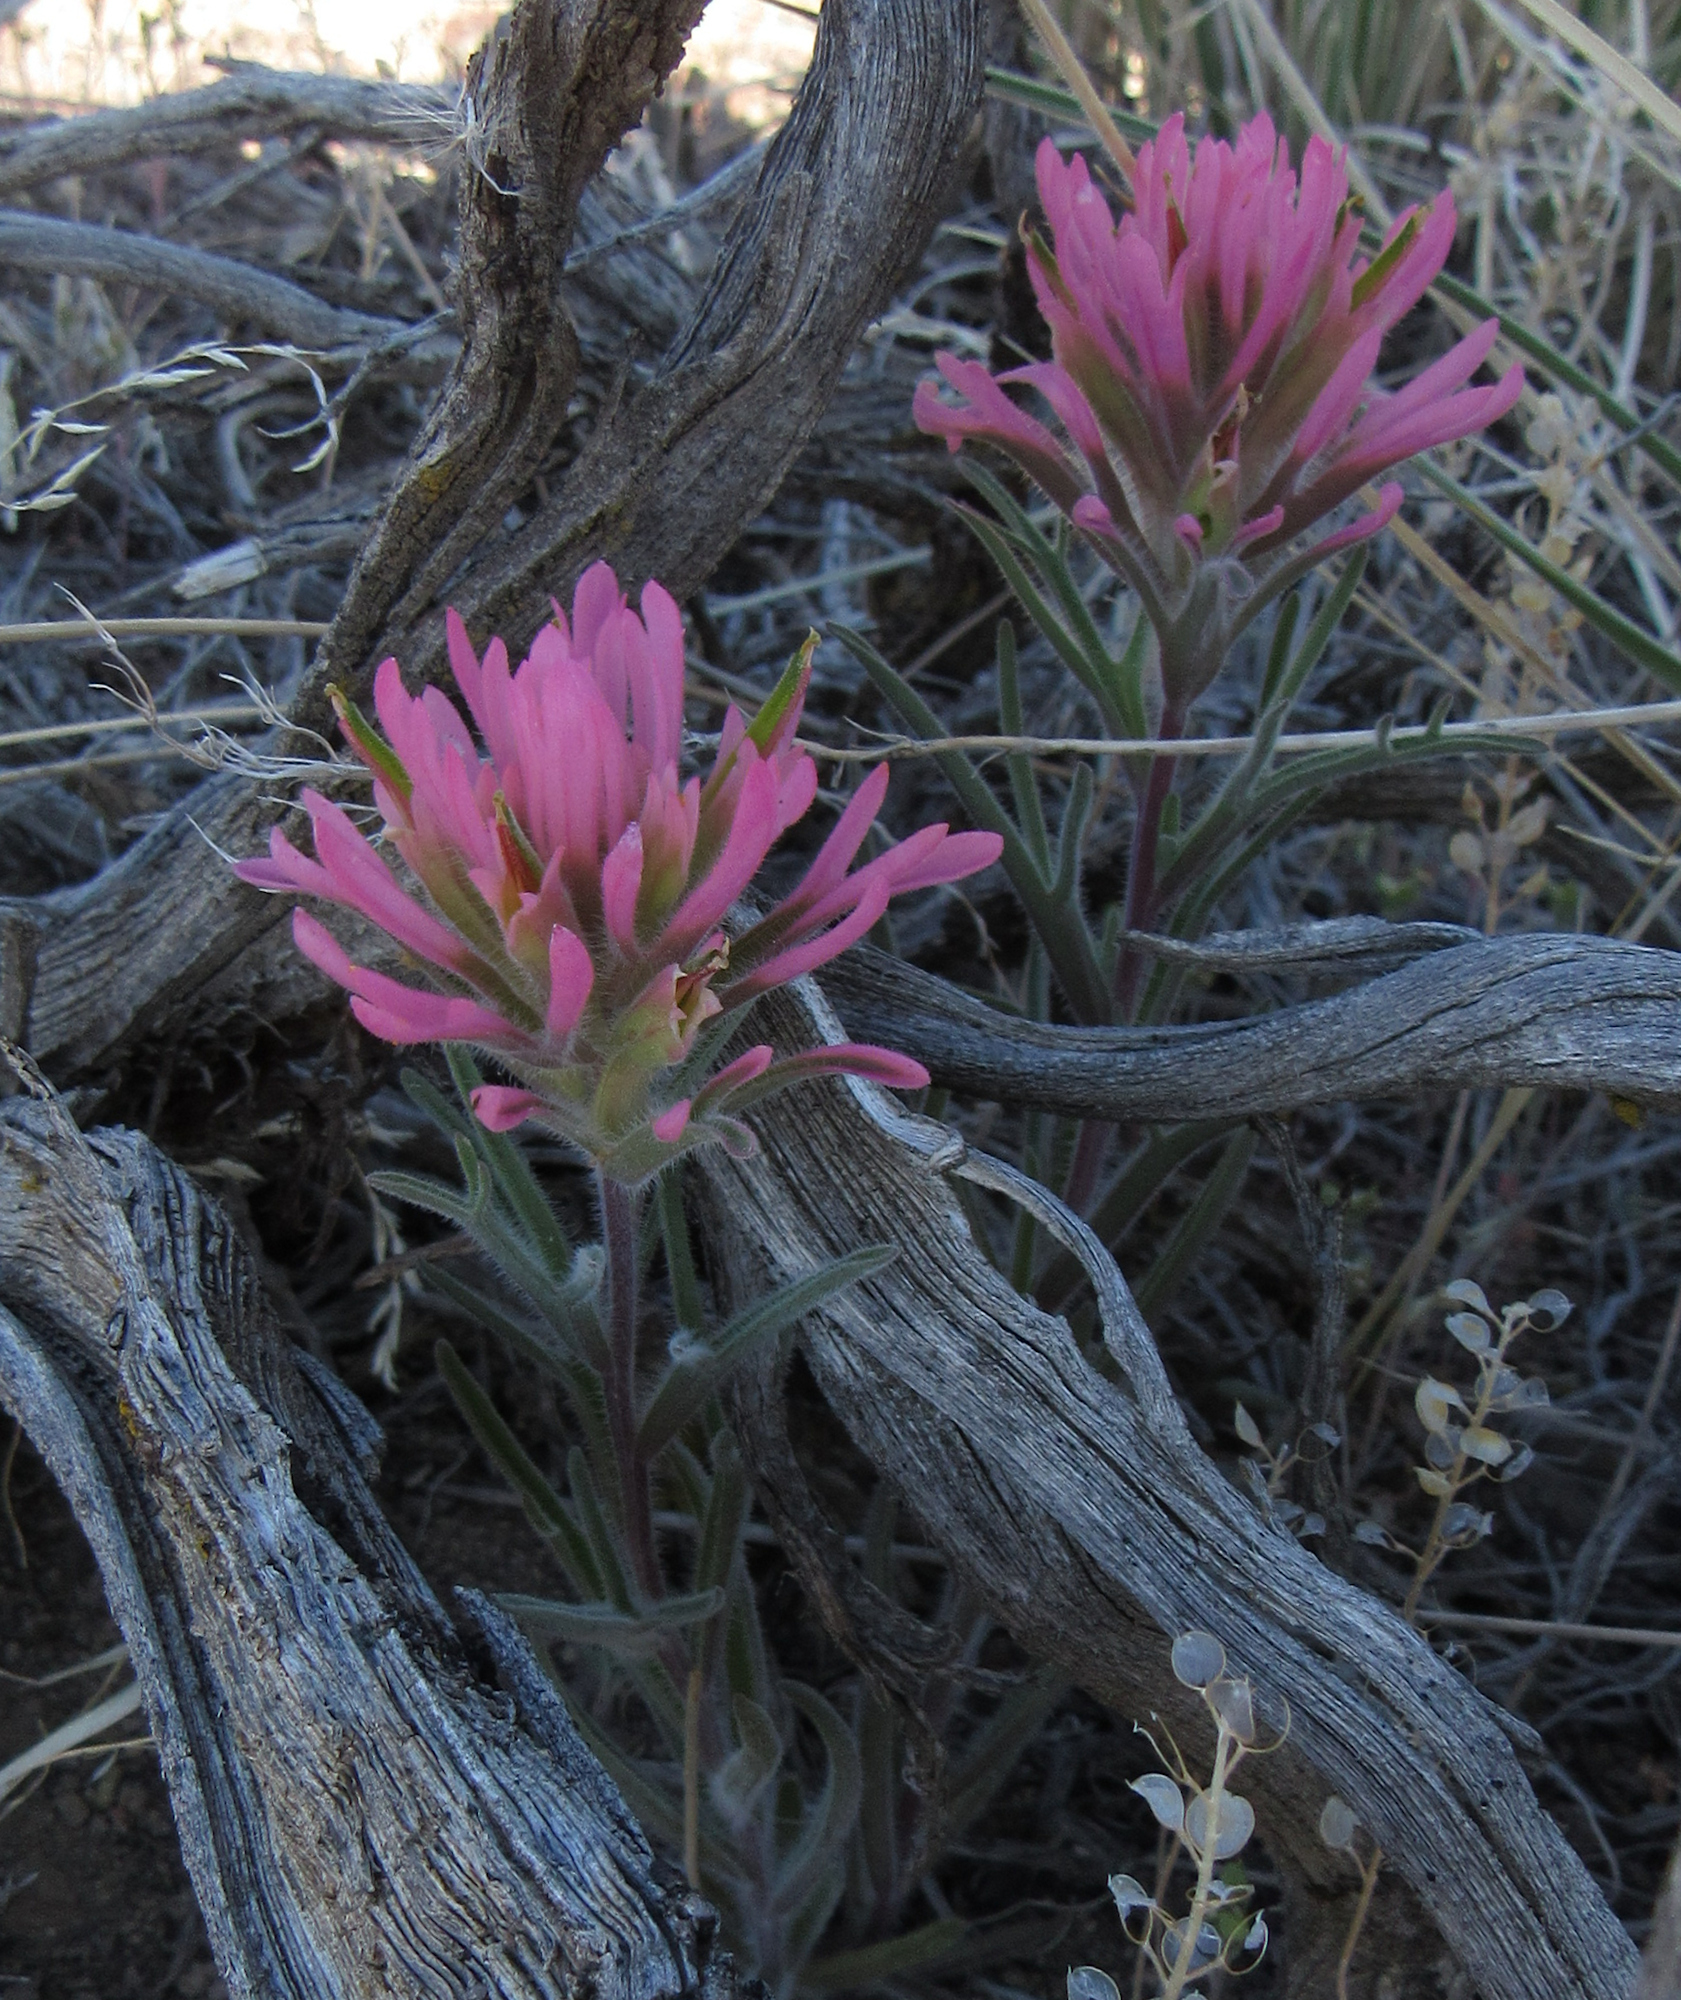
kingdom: Plantae
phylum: Tracheophyta
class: Magnoliopsida
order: Lamiales
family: Orobanchaceae
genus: Castilleja
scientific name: Castilleja angustifolia
